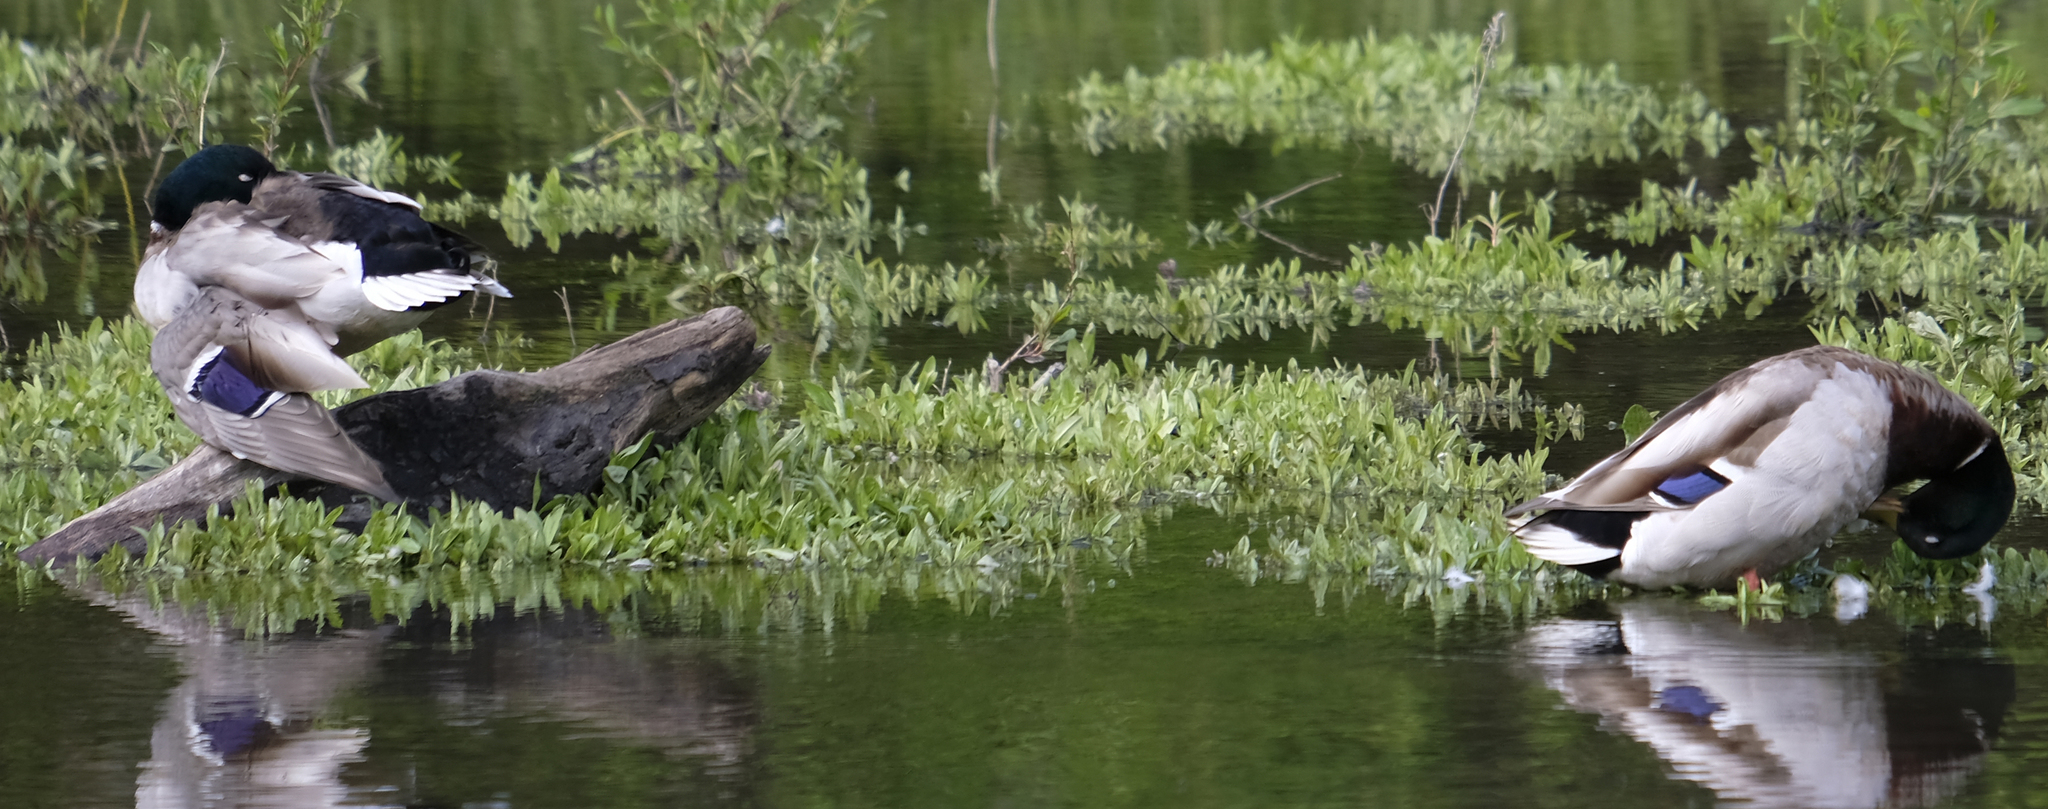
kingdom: Animalia
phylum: Chordata
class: Aves
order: Anseriformes
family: Anatidae
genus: Anas
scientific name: Anas platyrhynchos
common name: Mallard
